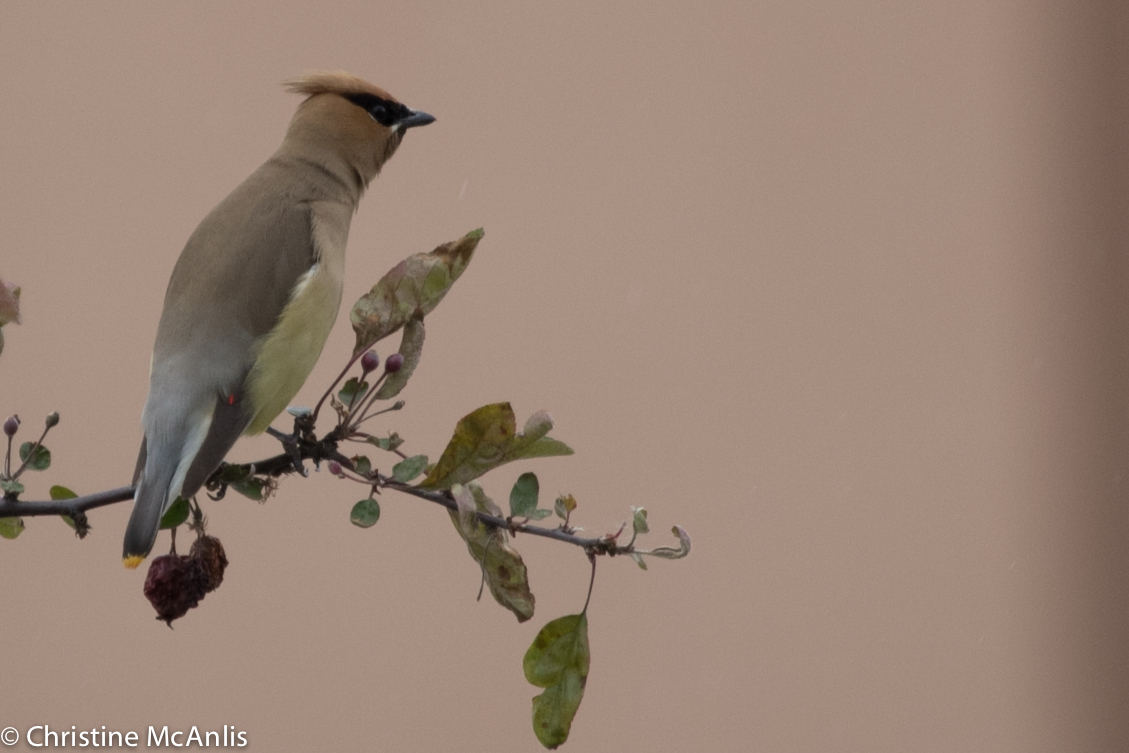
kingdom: Animalia
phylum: Chordata
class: Aves
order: Passeriformes
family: Bombycillidae
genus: Bombycilla
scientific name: Bombycilla cedrorum
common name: Cedar waxwing
